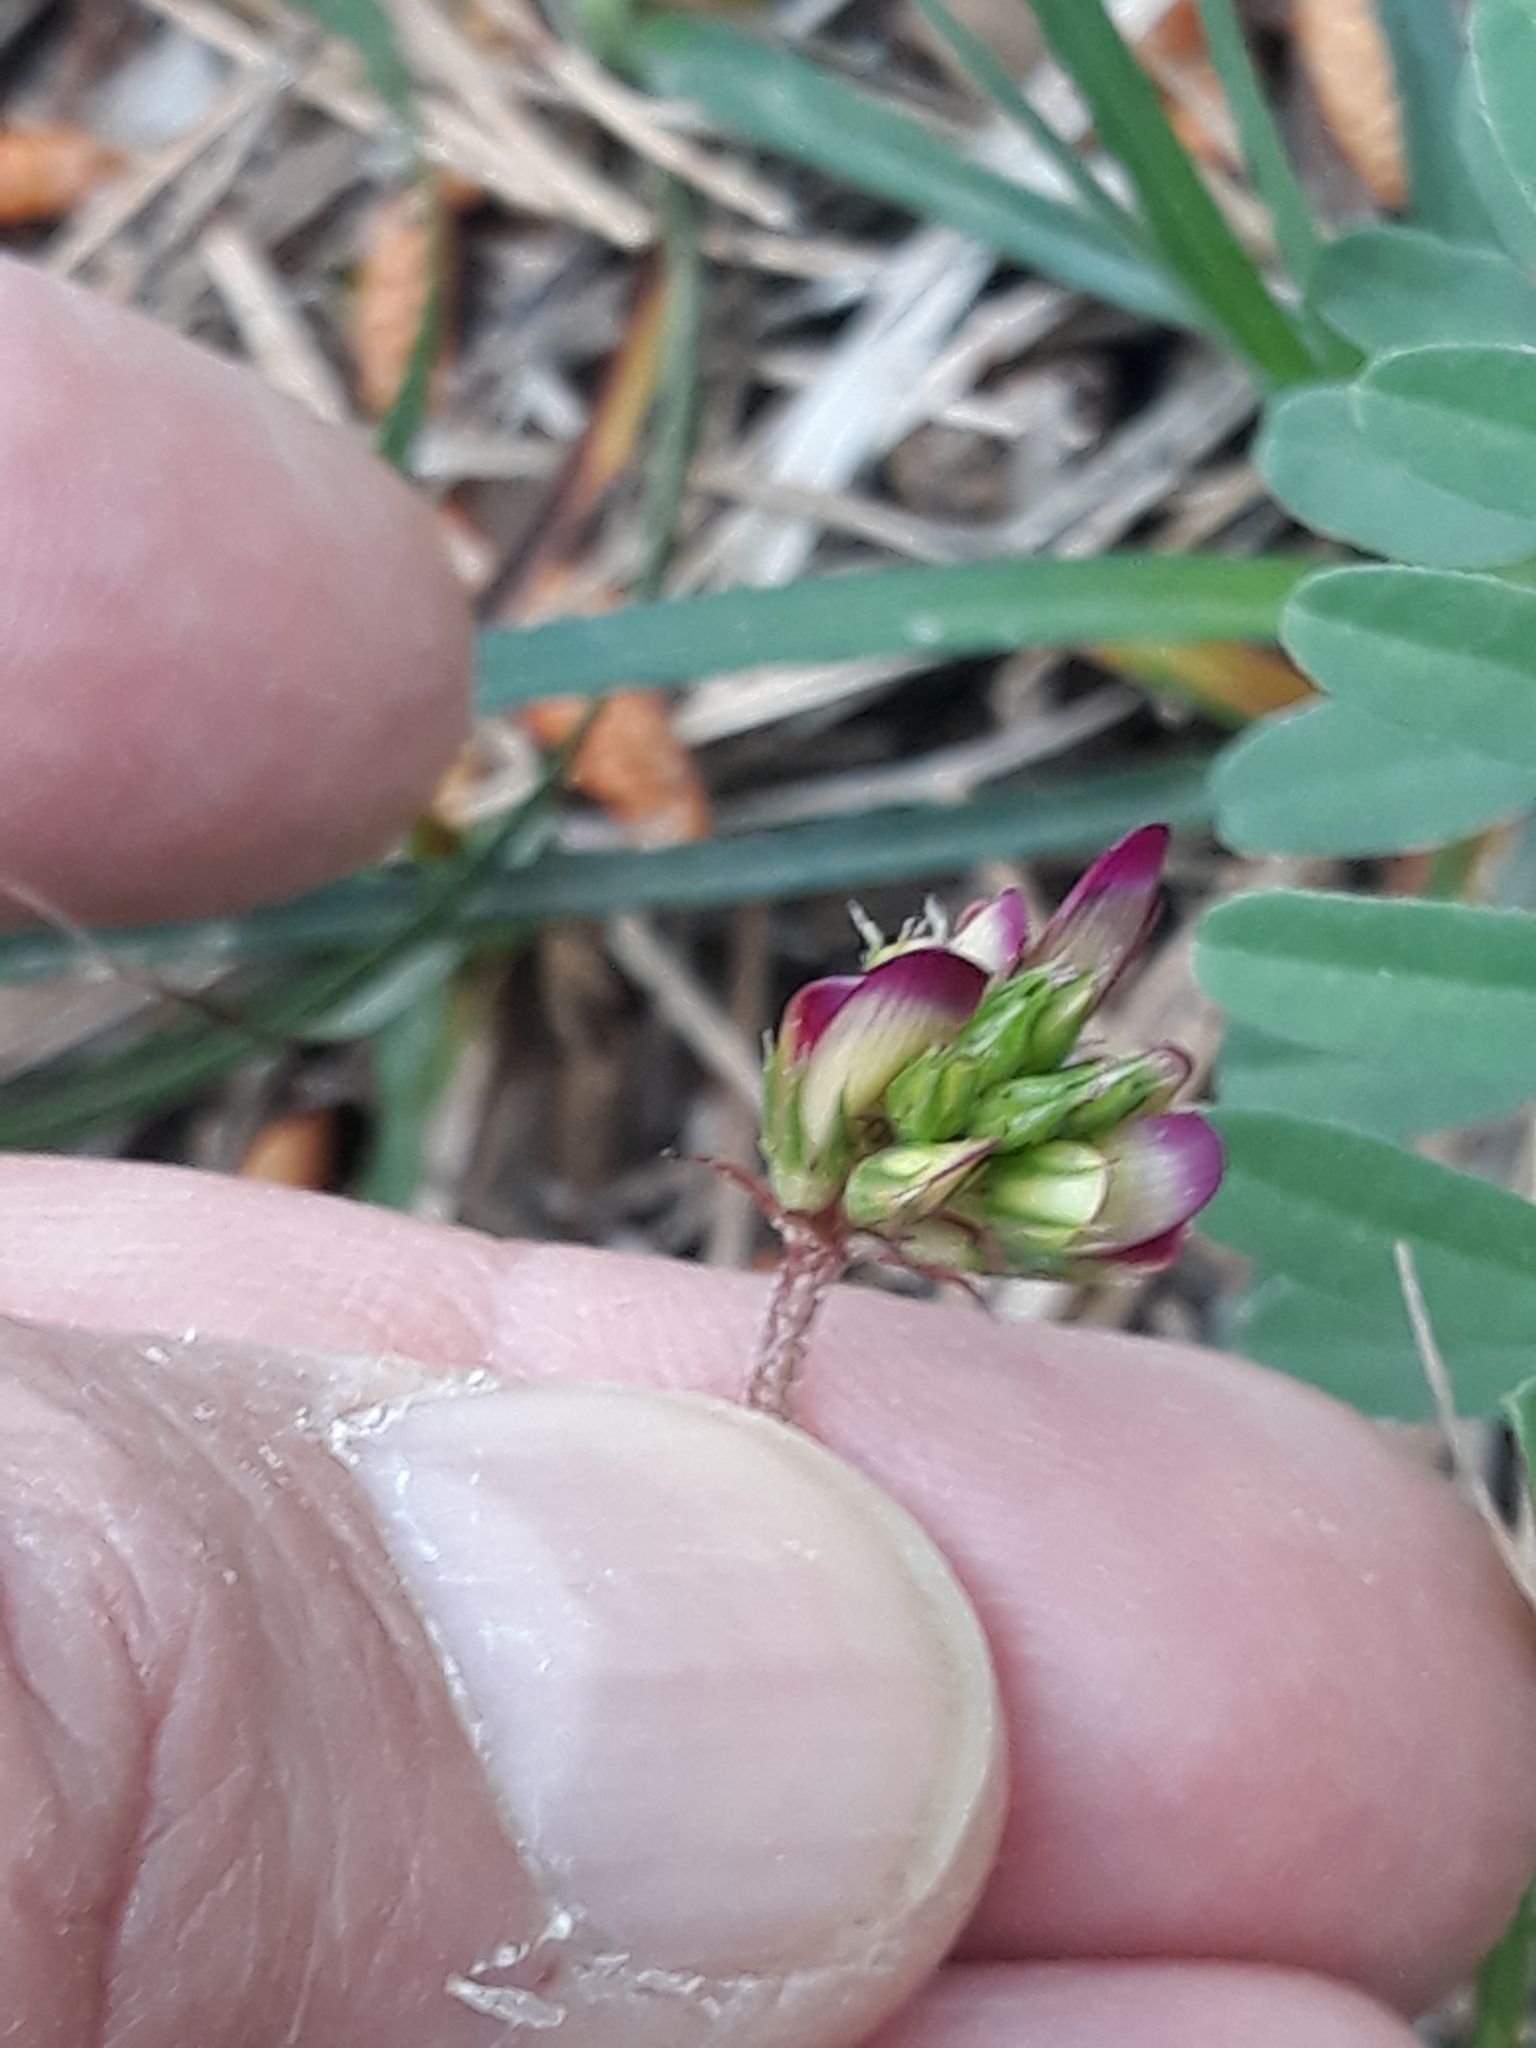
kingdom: Plantae
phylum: Tracheophyta
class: Magnoliopsida
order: Fabales
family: Fabaceae
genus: Sulla
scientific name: Sulla glomerata
